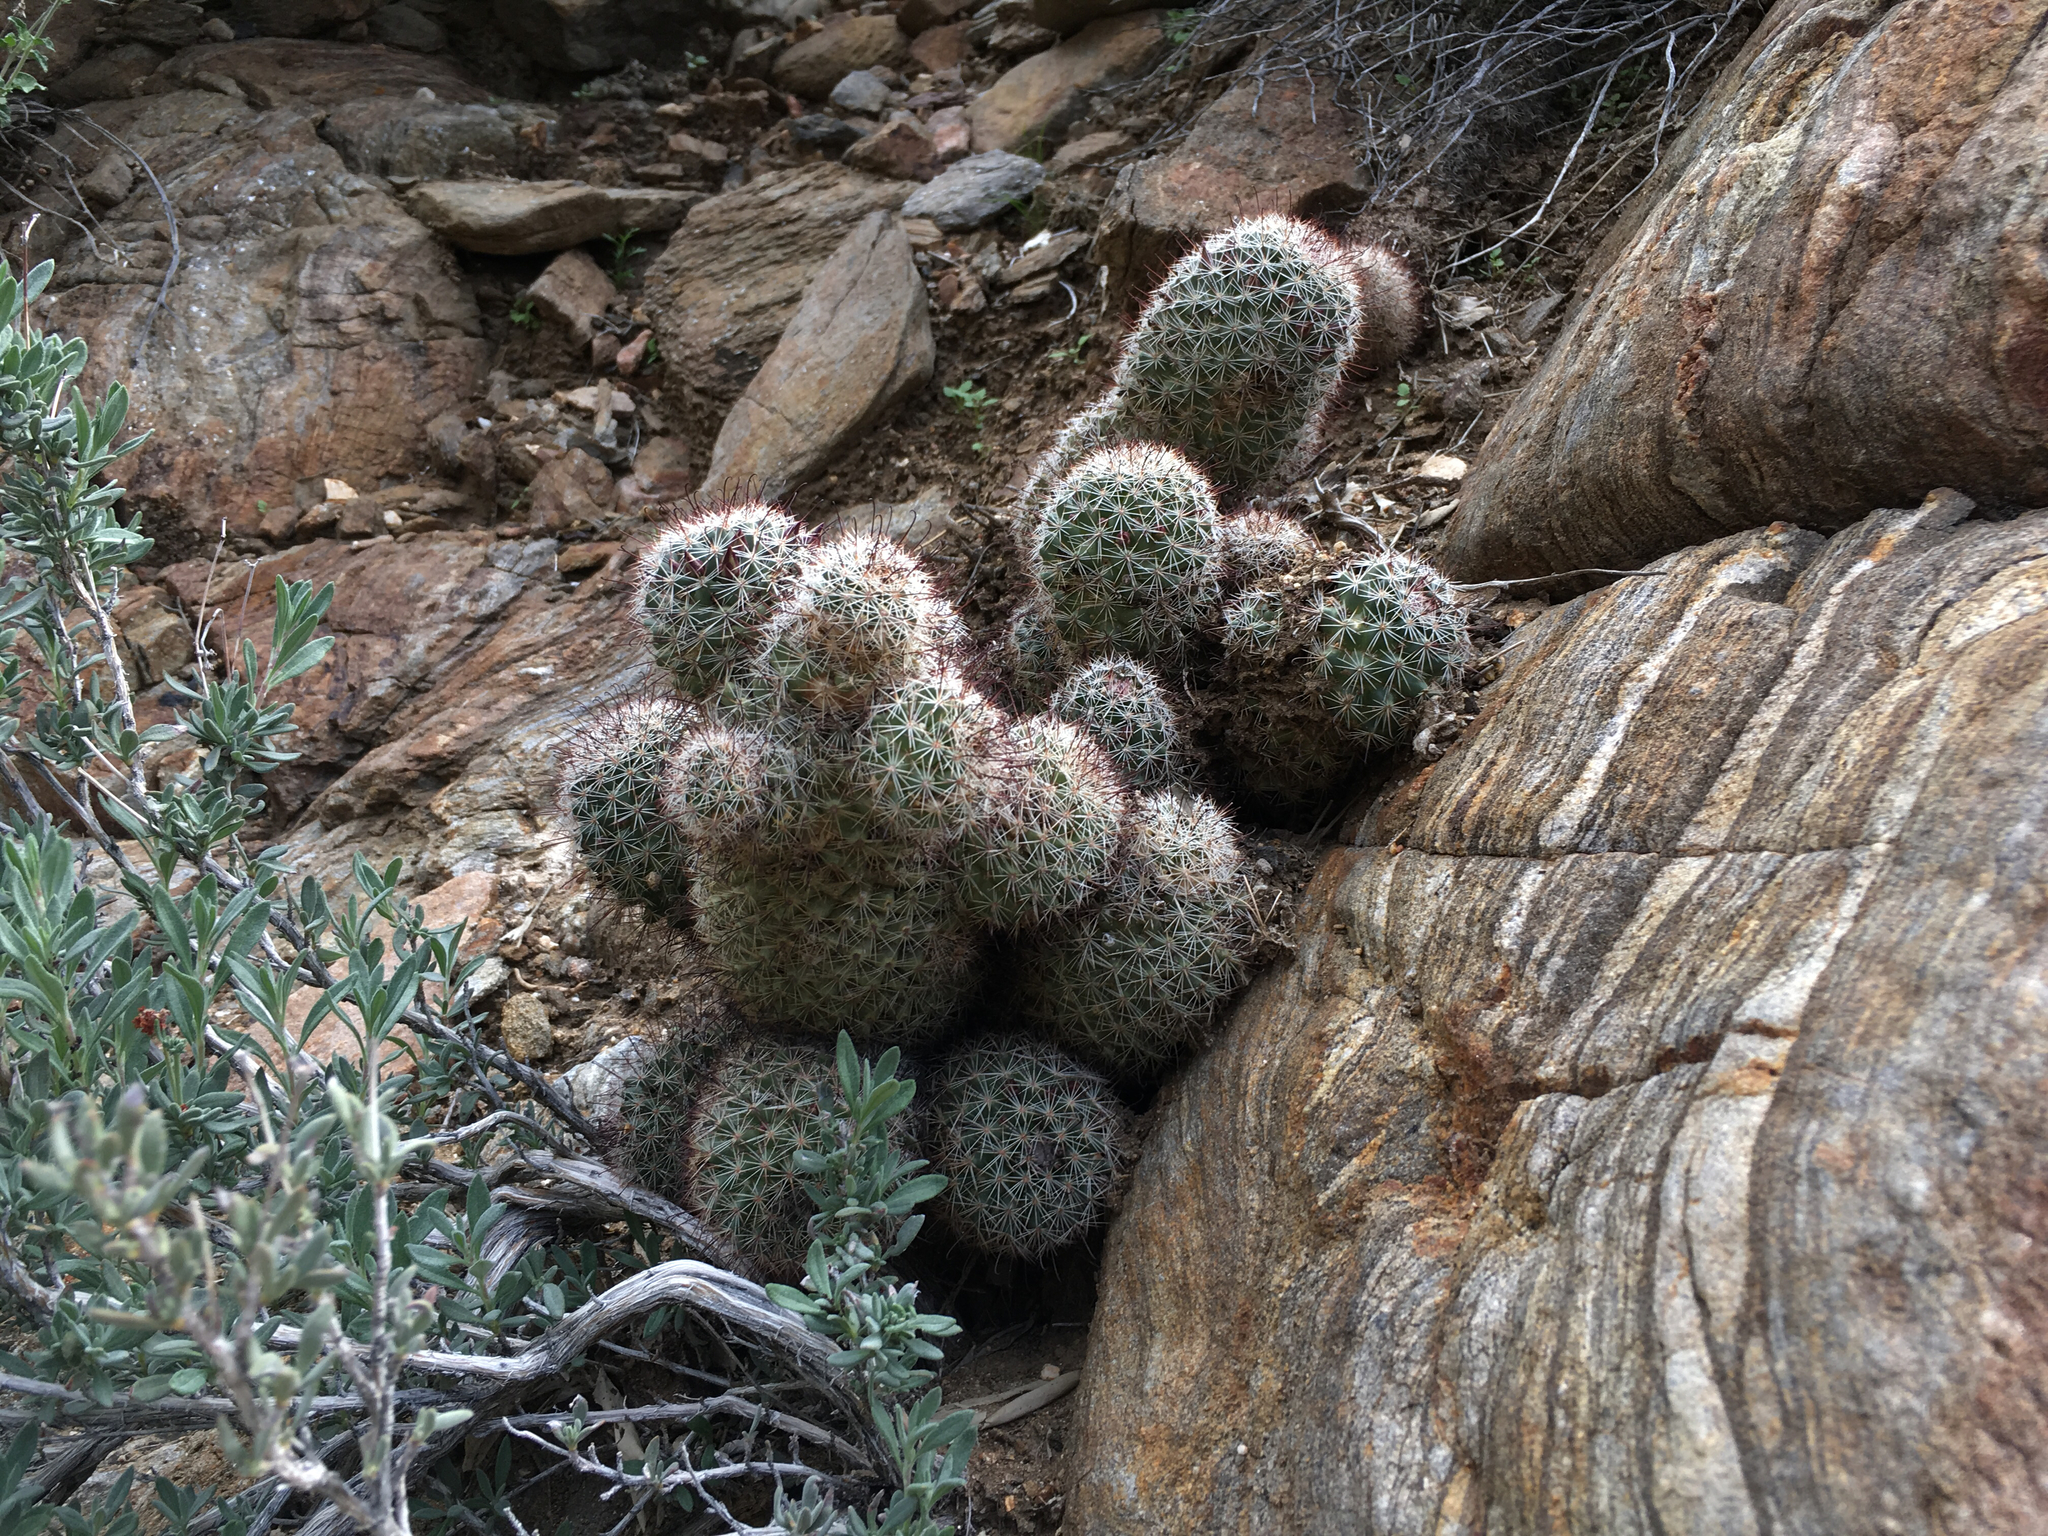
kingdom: Plantae
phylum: Tracheophyta
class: Magnoliopsida
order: Caryophyllales
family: Cactaceae
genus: Cochemiea
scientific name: Cochemiea dioica
